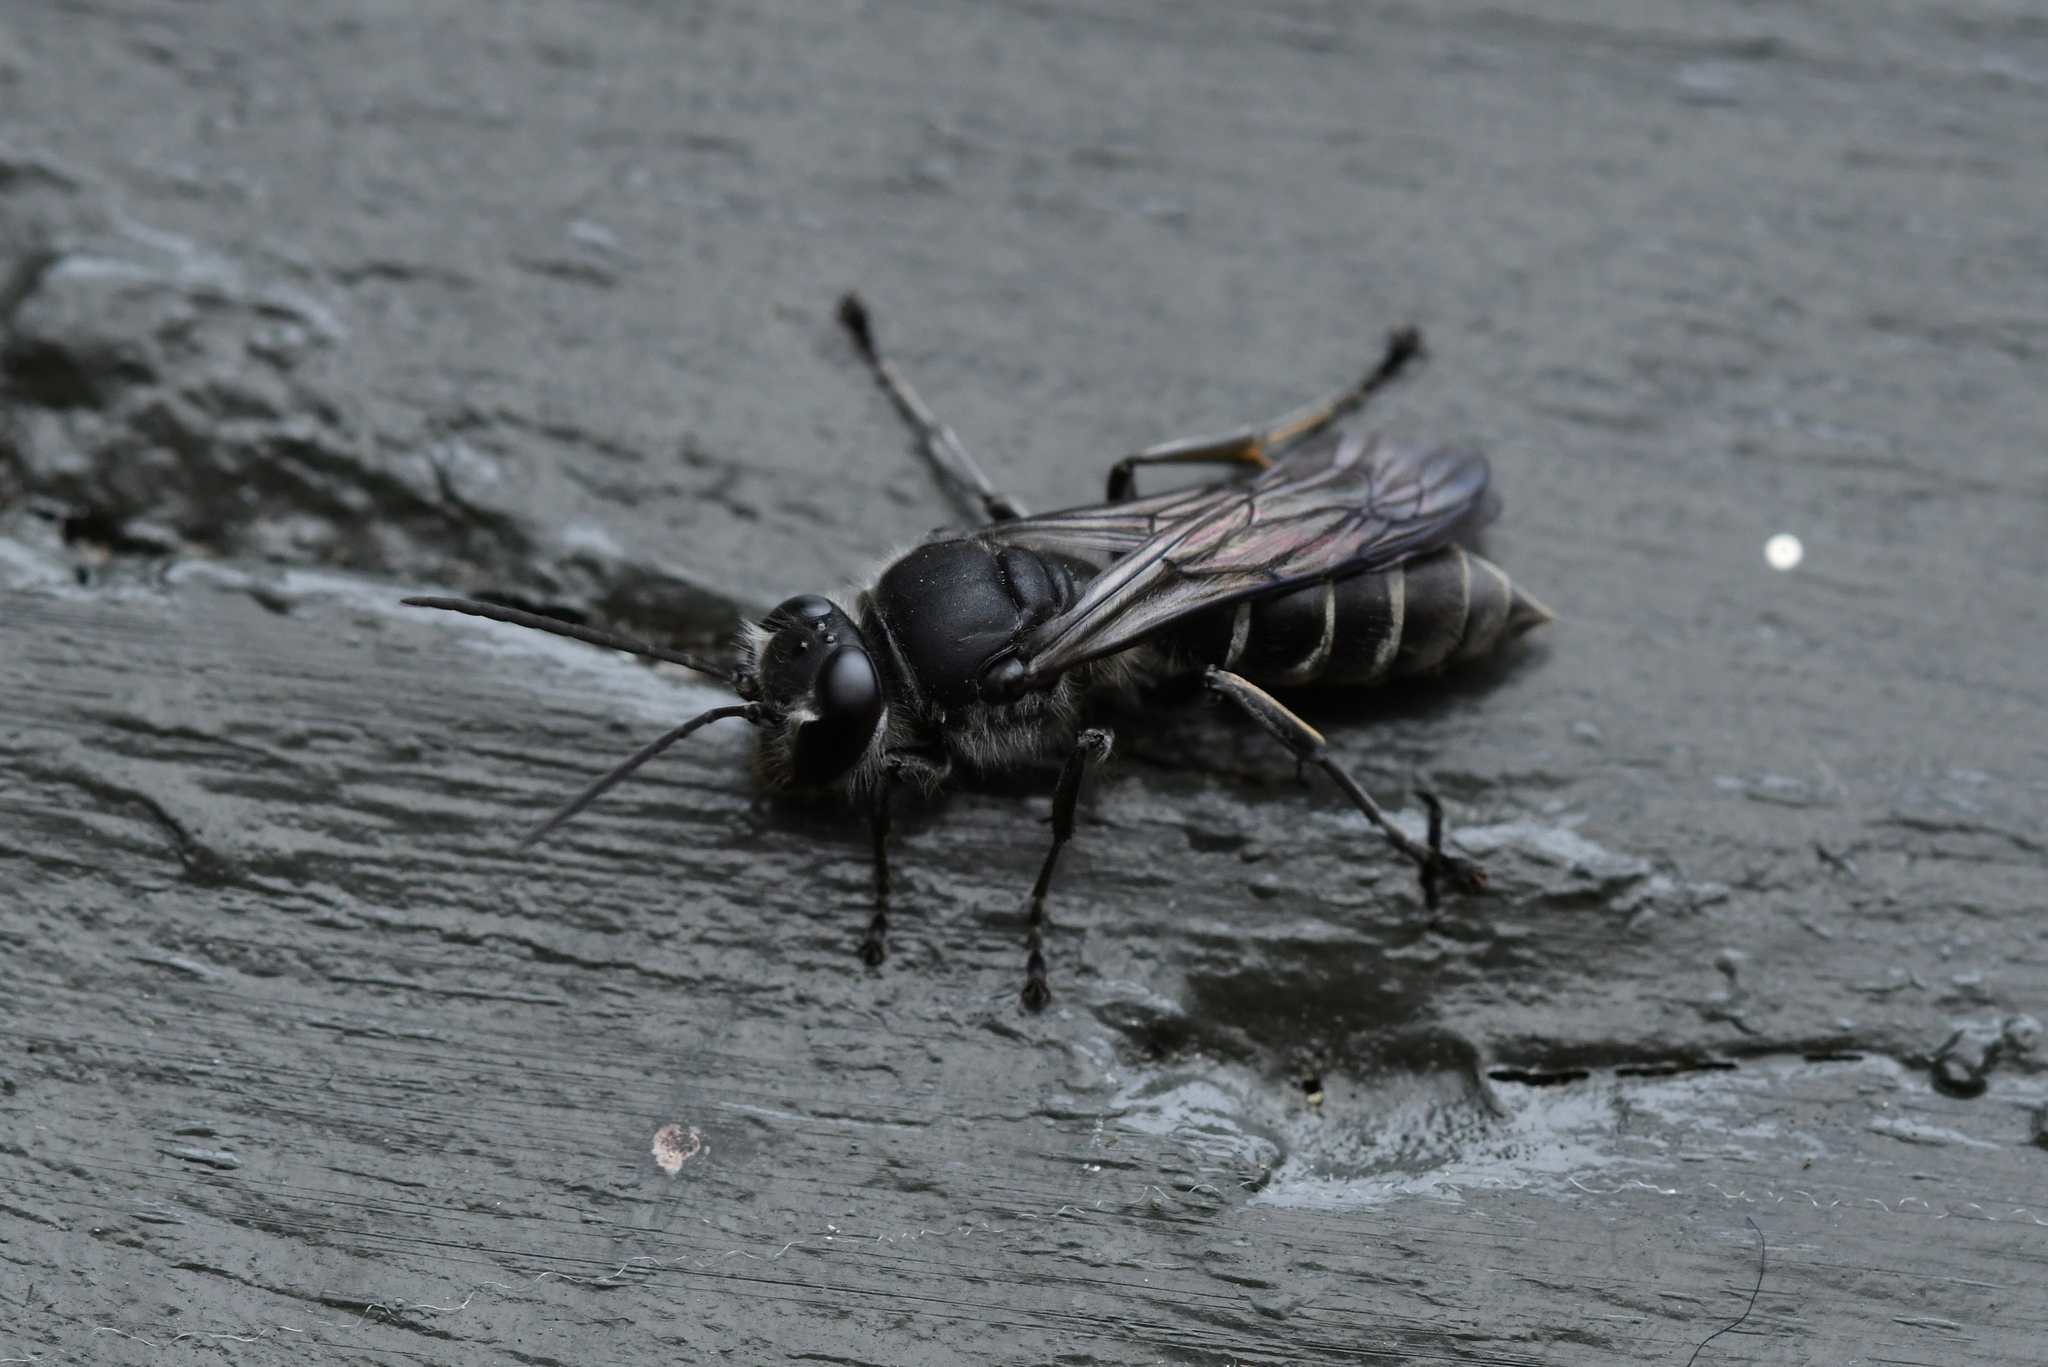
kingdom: Animalia
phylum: Arthropoda
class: Insecta
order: Hymenoptera
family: Crabronidae
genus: Pison
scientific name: Pison spinolae
